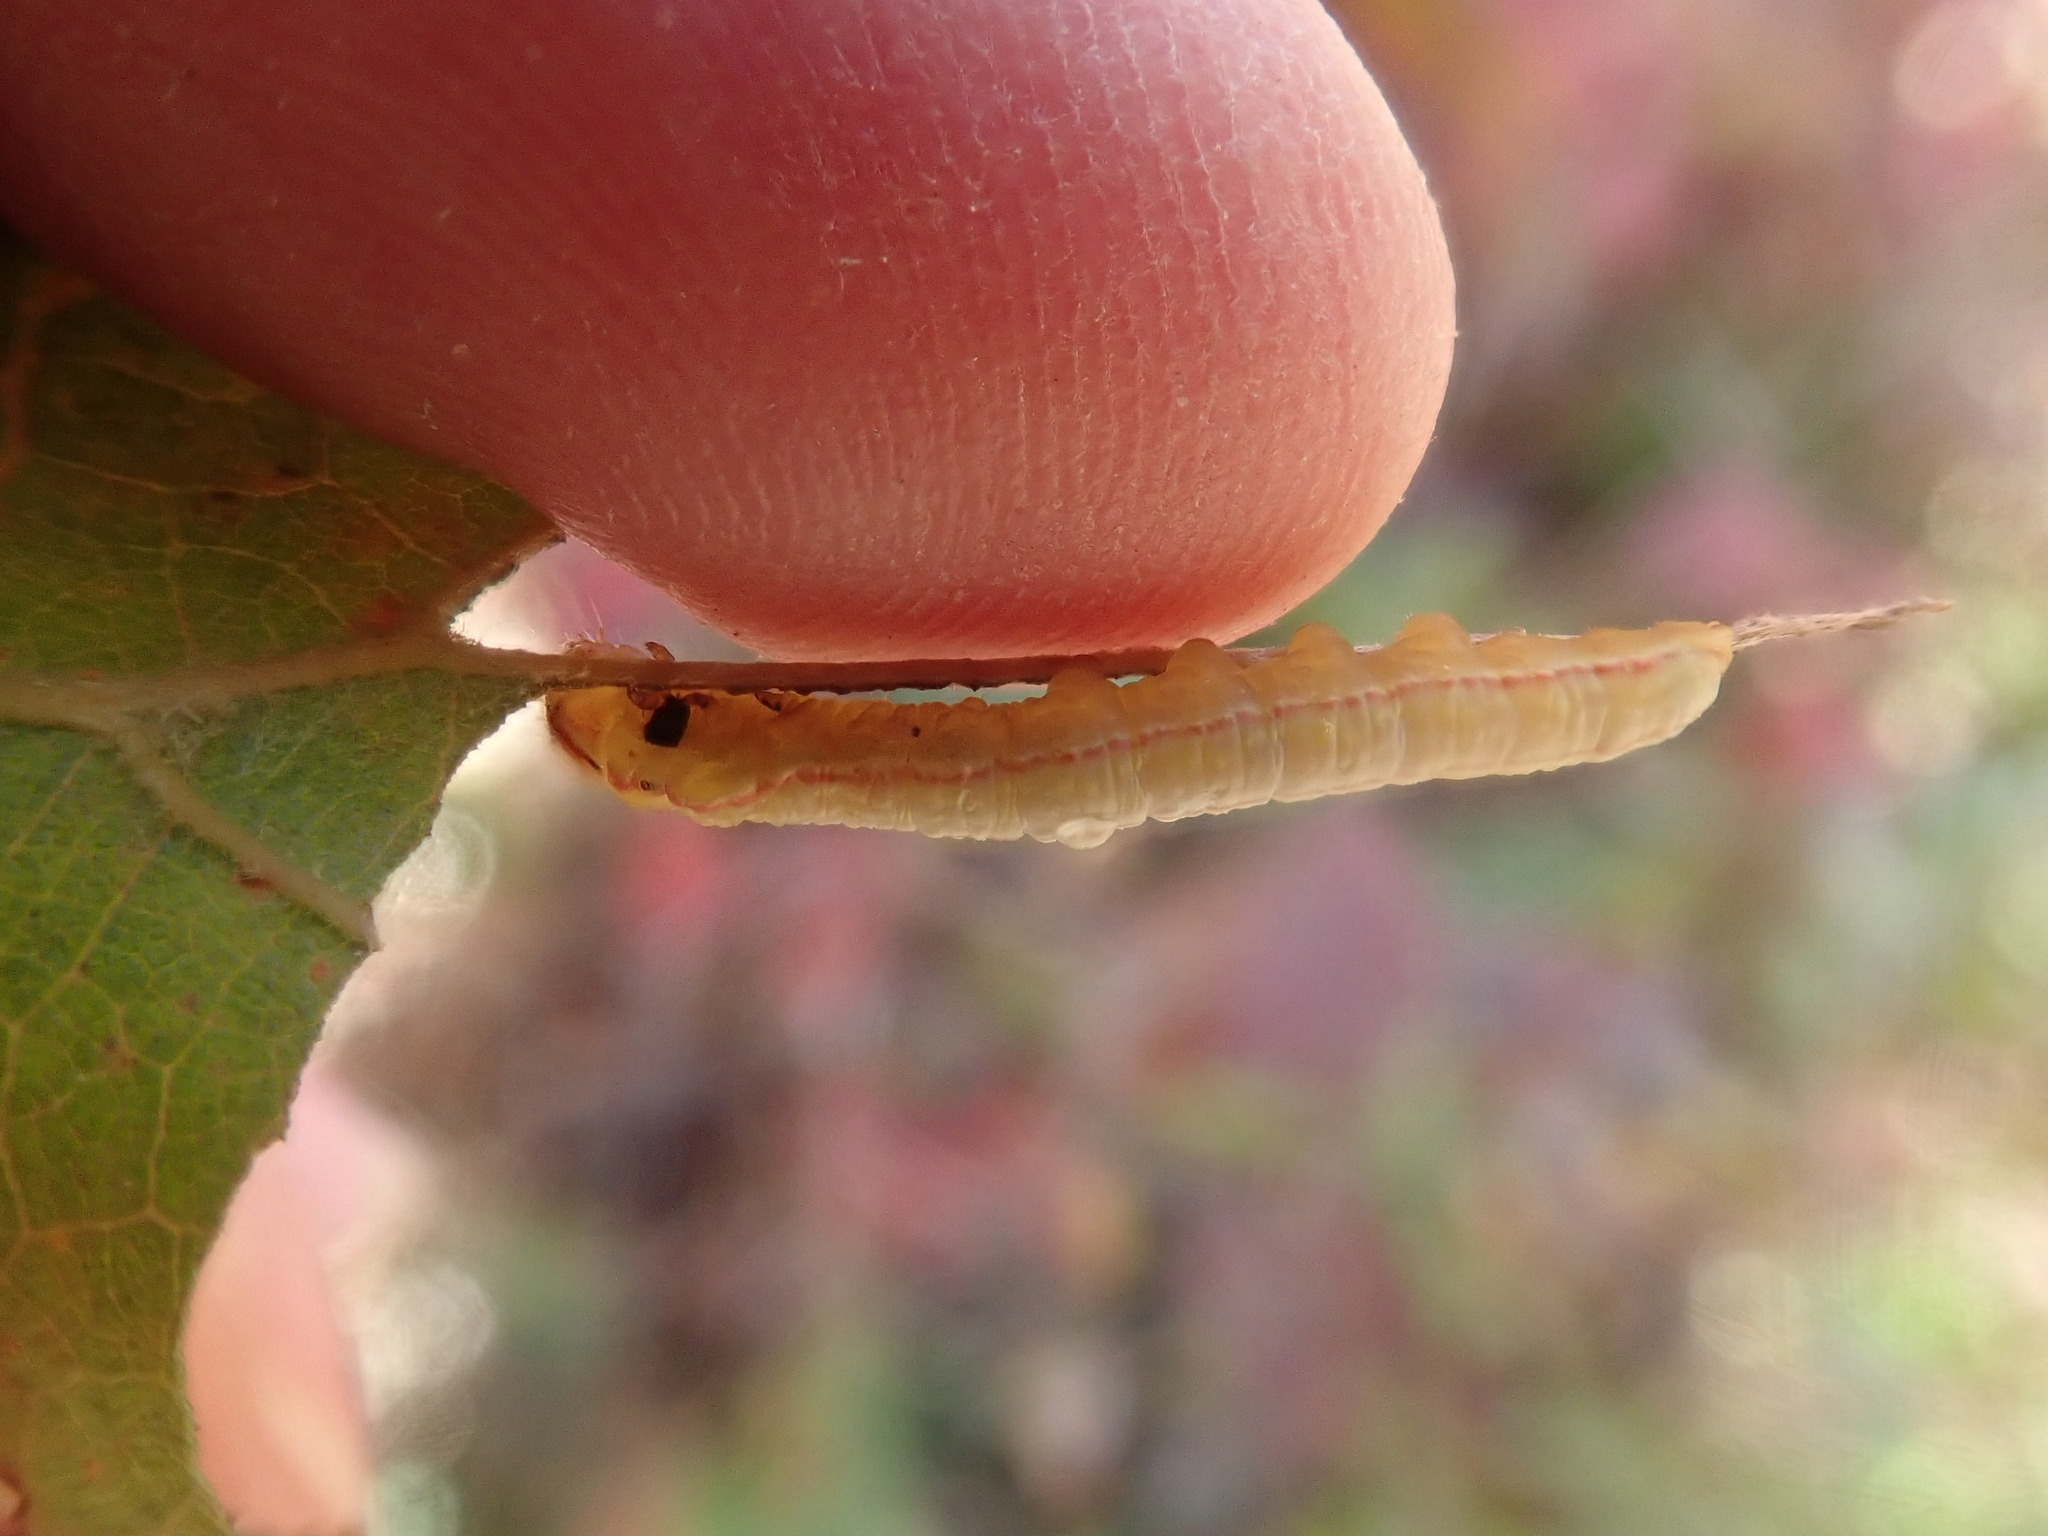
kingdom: Animalia
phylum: Arthropoda
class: Insecta
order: Lepidoptera
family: Notodontidae
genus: Peridea
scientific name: Peridea angulosa
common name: Angulose prominent
